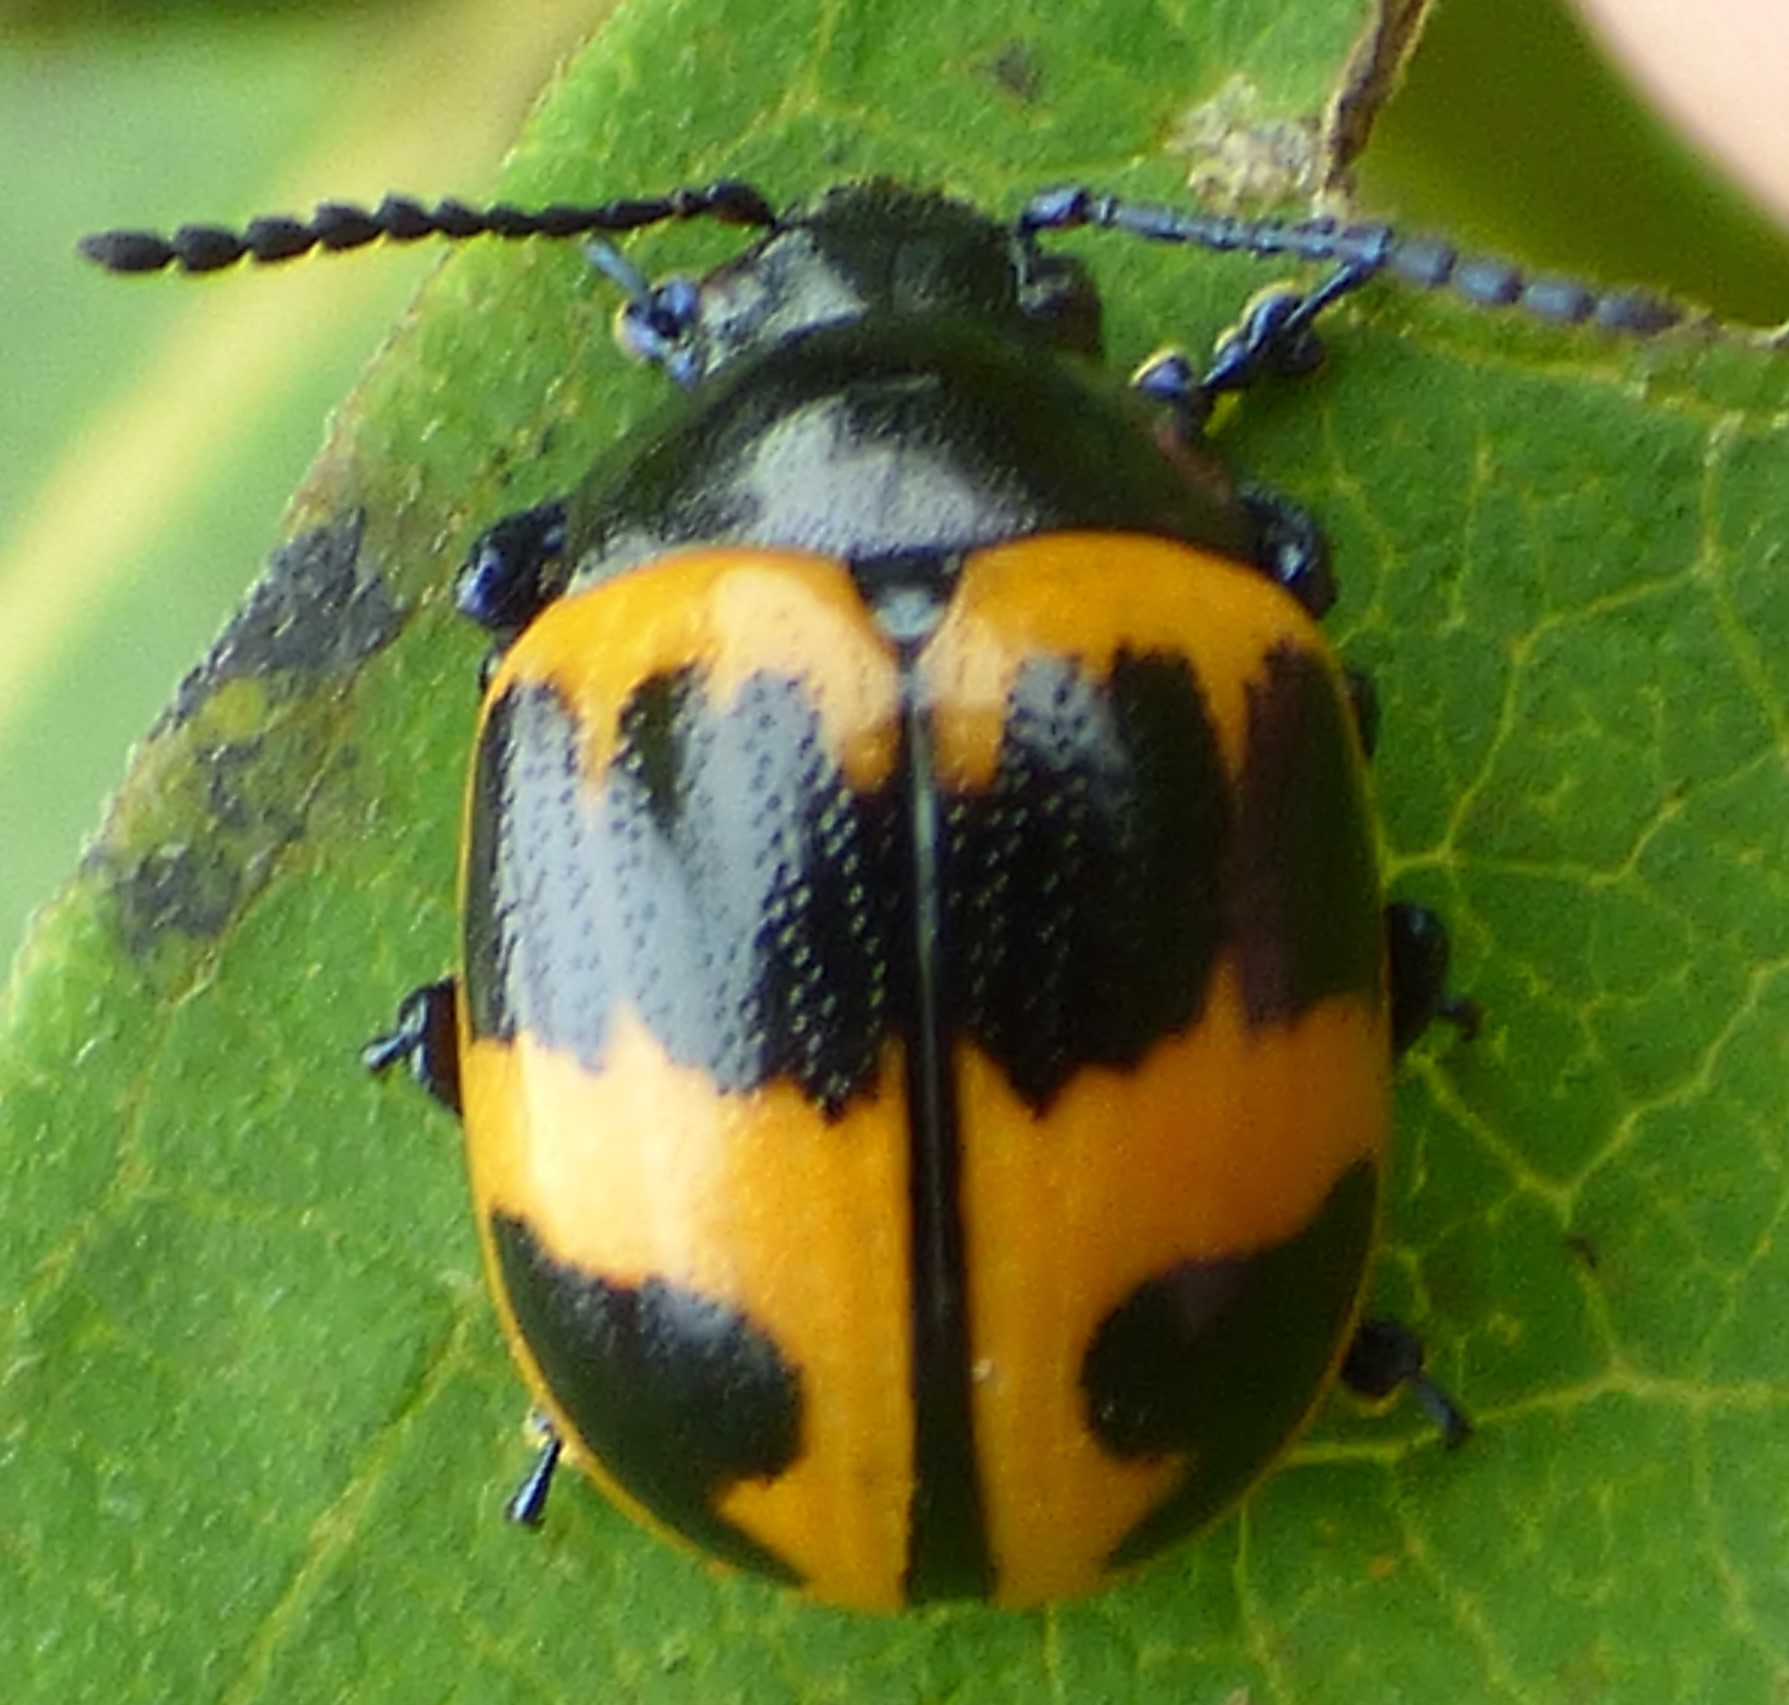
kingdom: Animalia
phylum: Arthropoda
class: Insecta
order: Coleoptera
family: Chrysomelidae
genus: Labidomera
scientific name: Labidomera clivicollis
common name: Swamp milkweed leaf beetle
